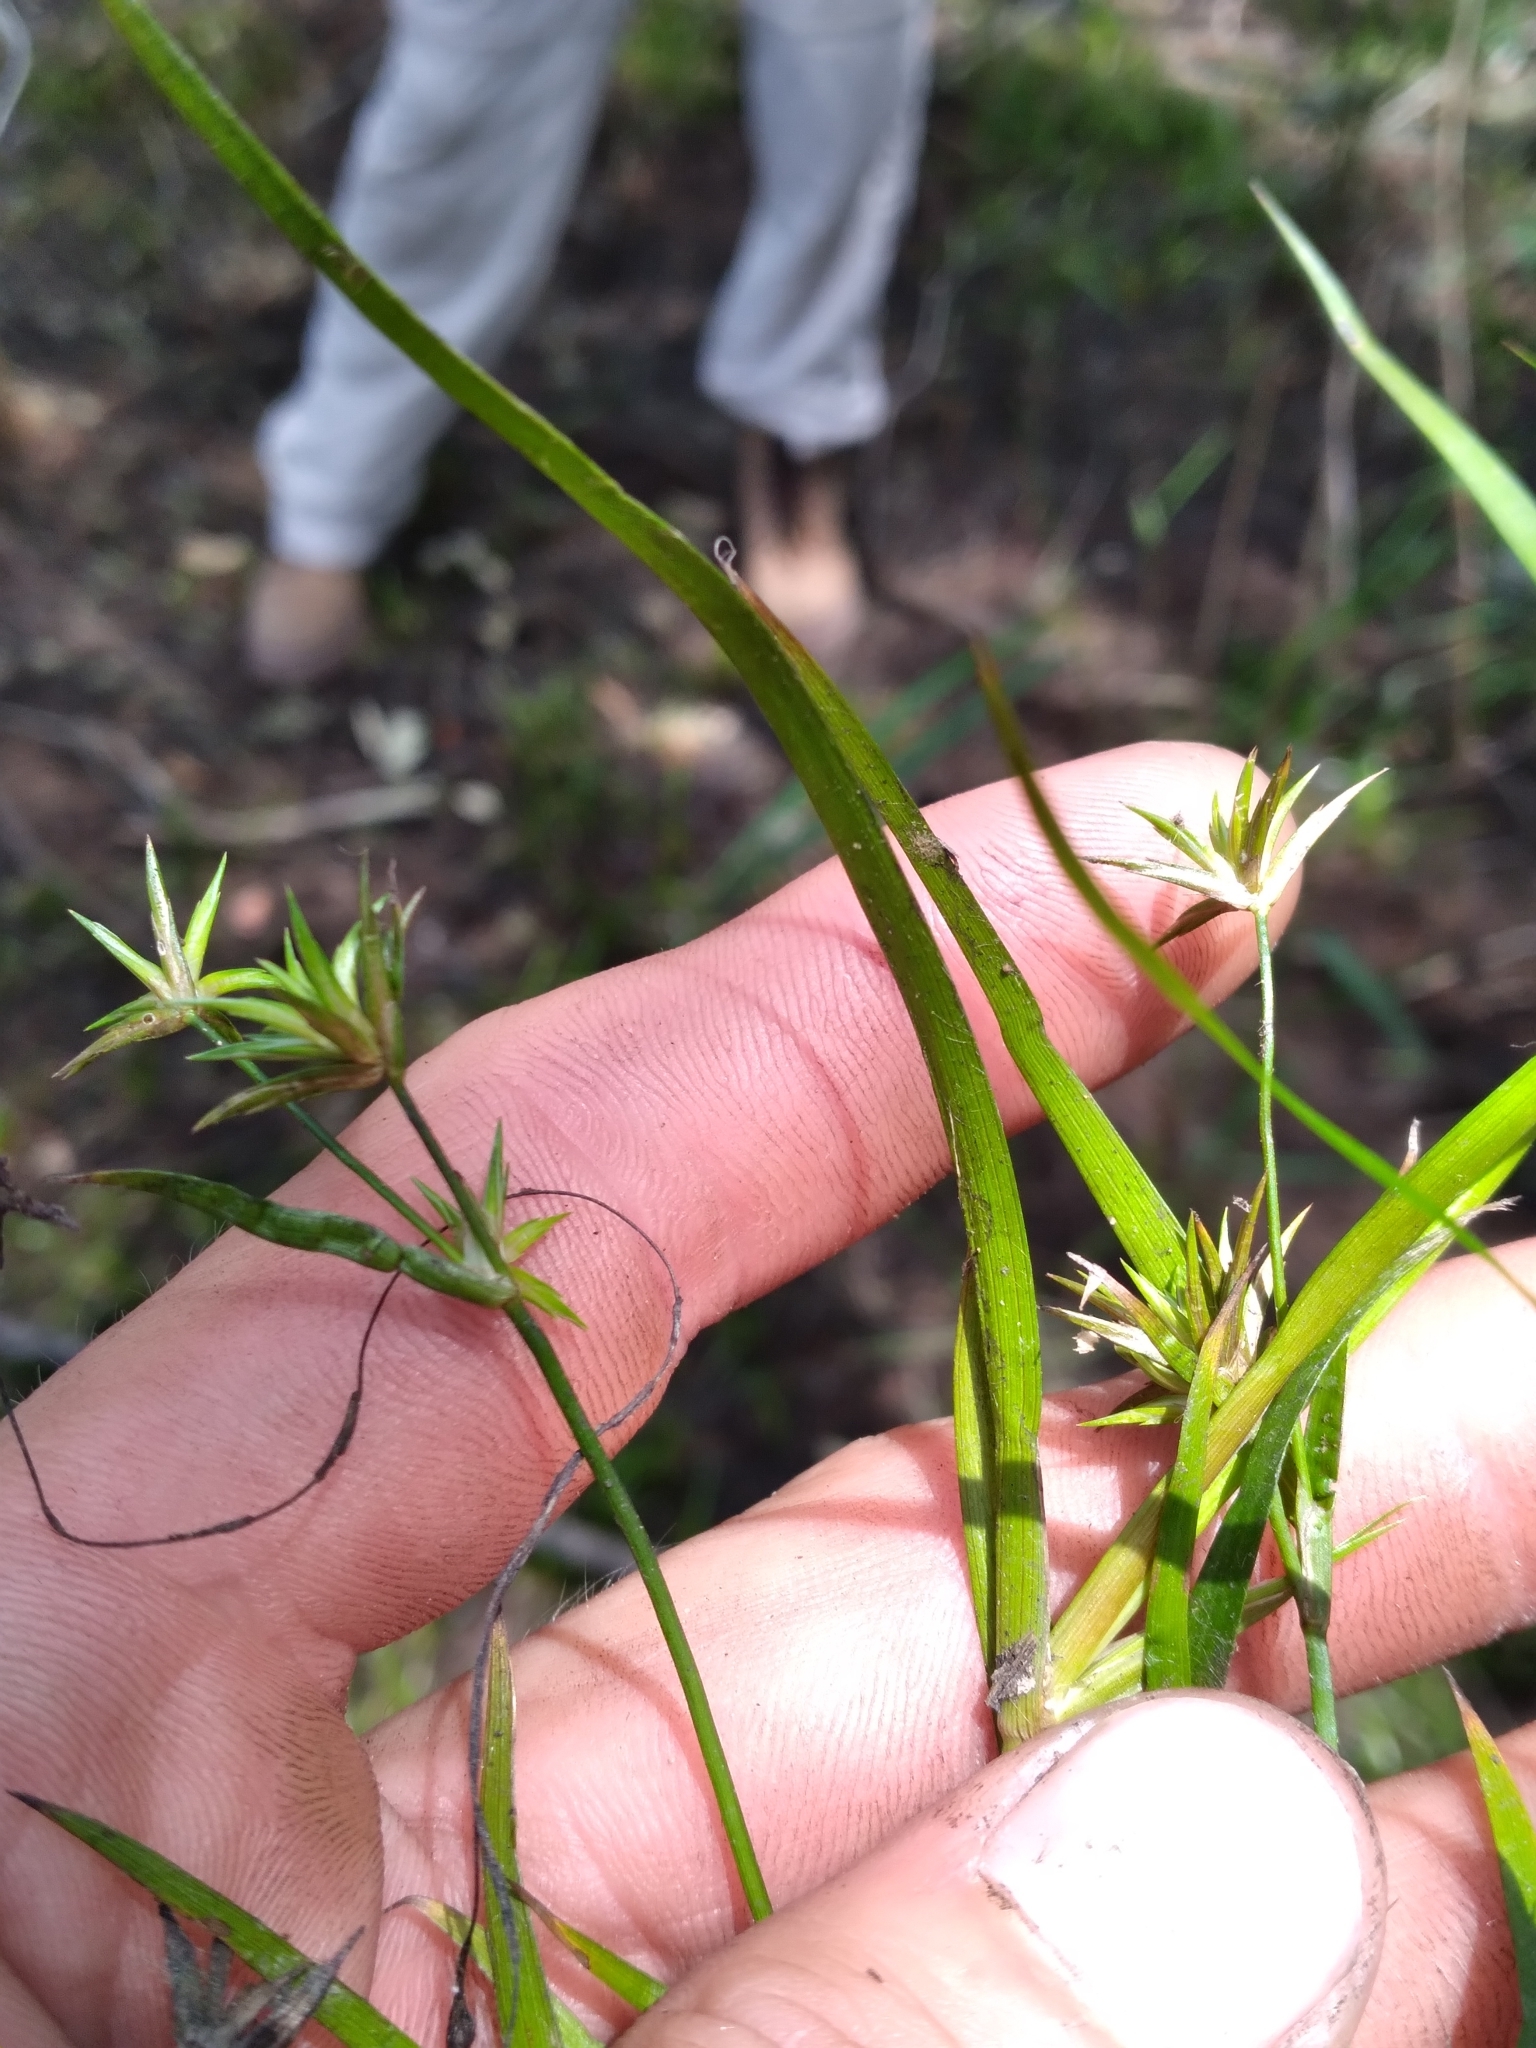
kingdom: Plantae
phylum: Tracheophyta
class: Liliopsida
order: Poales
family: Juncaceae
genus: Juncus
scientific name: Juncus repens
